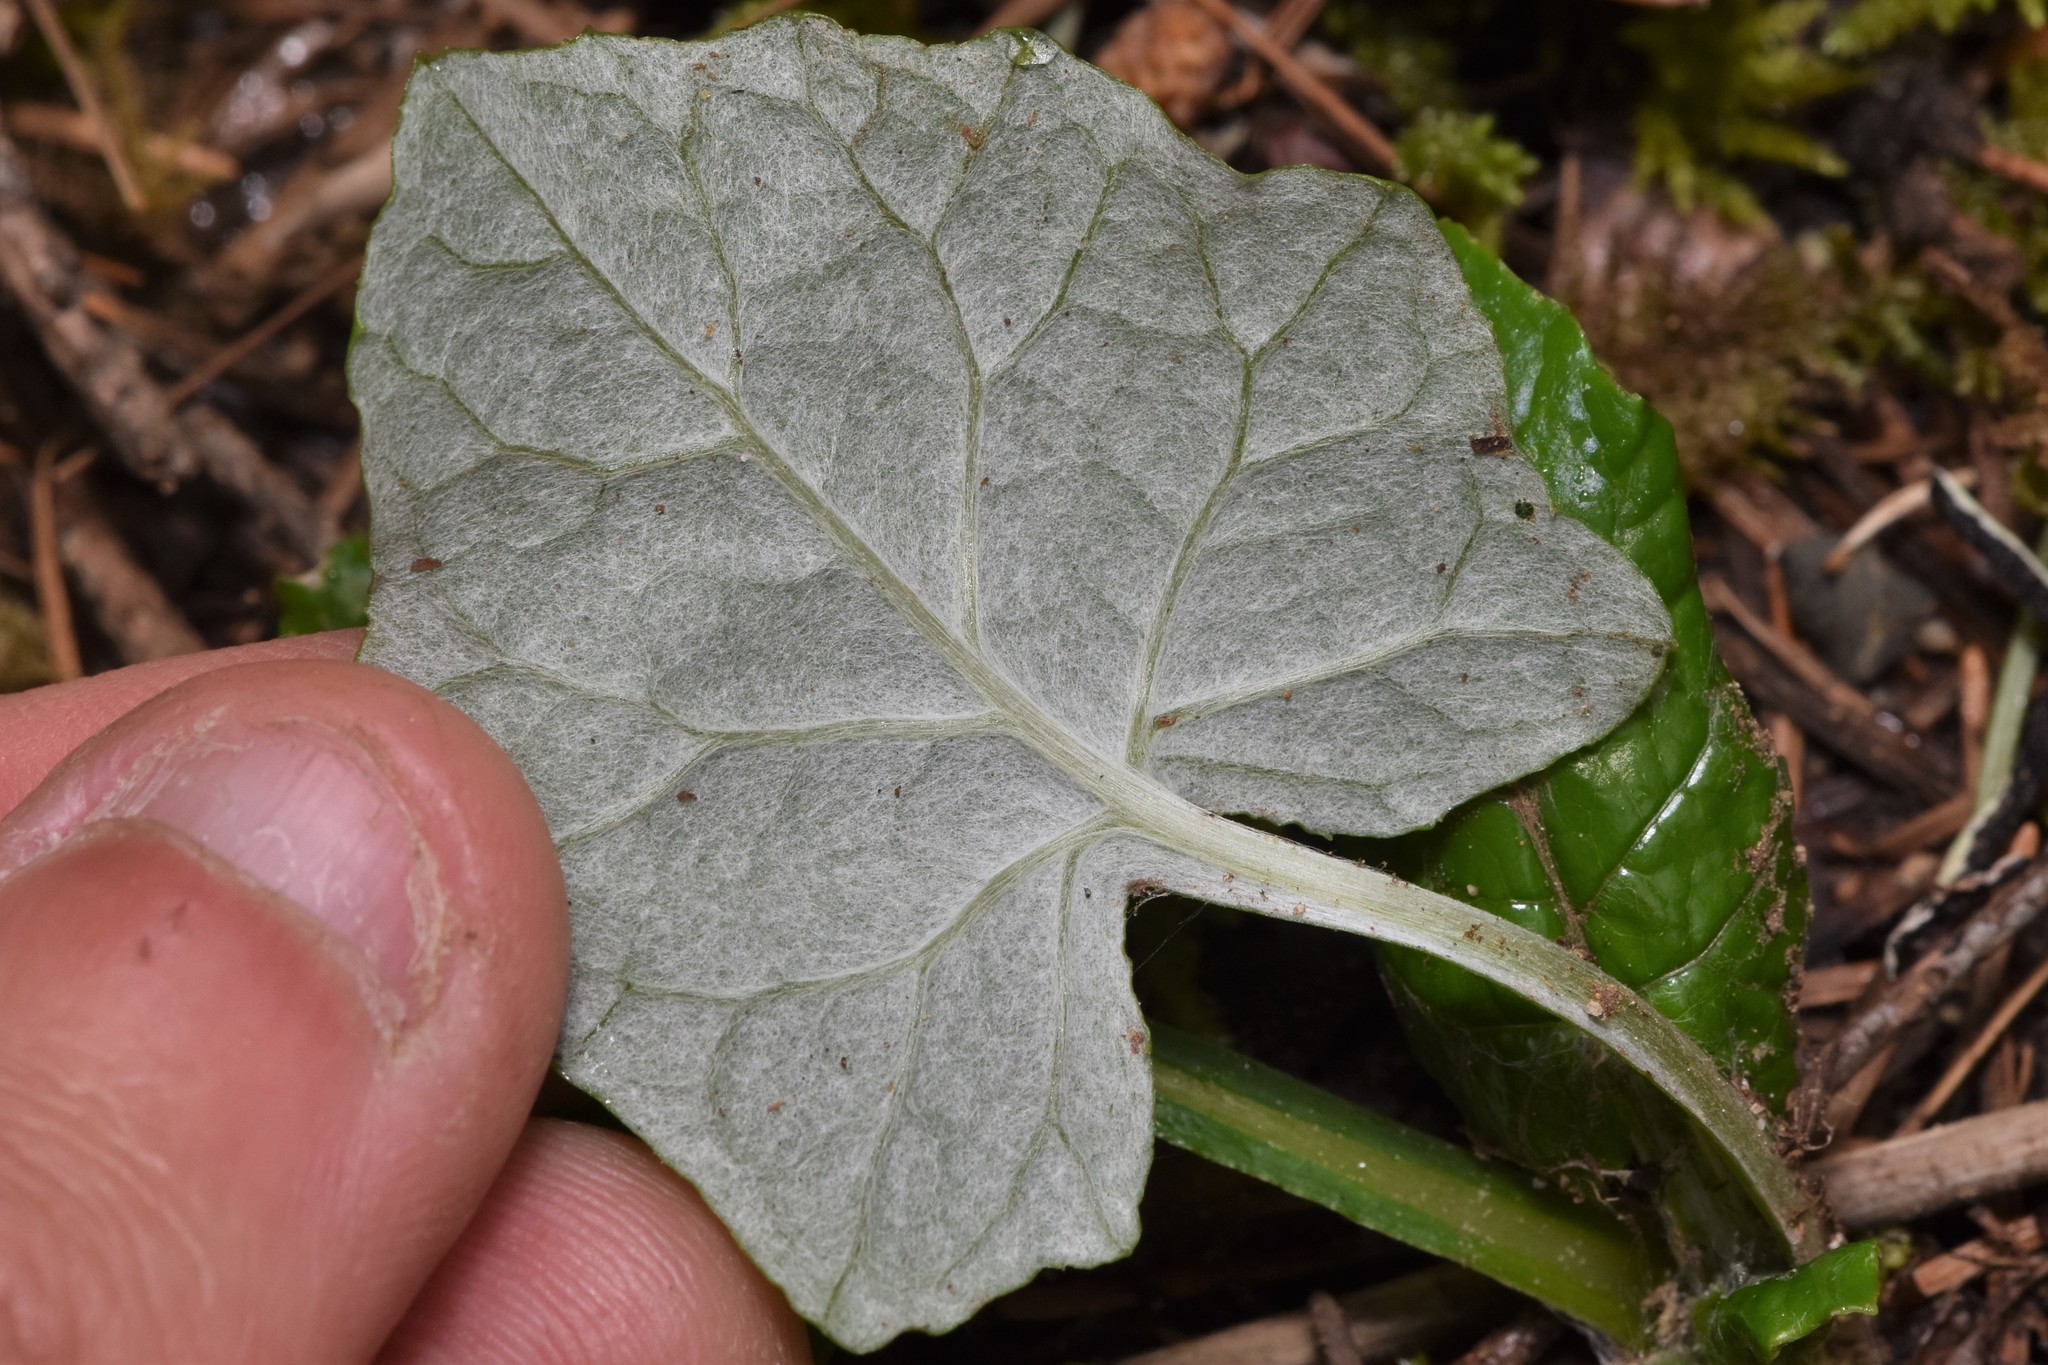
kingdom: Plantae
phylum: Tracheophyta
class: Magnoliopsida
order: Asterales
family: Asteraceae
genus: Adenocaulon
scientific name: Adenocaulon bicolor
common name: Trailplant
